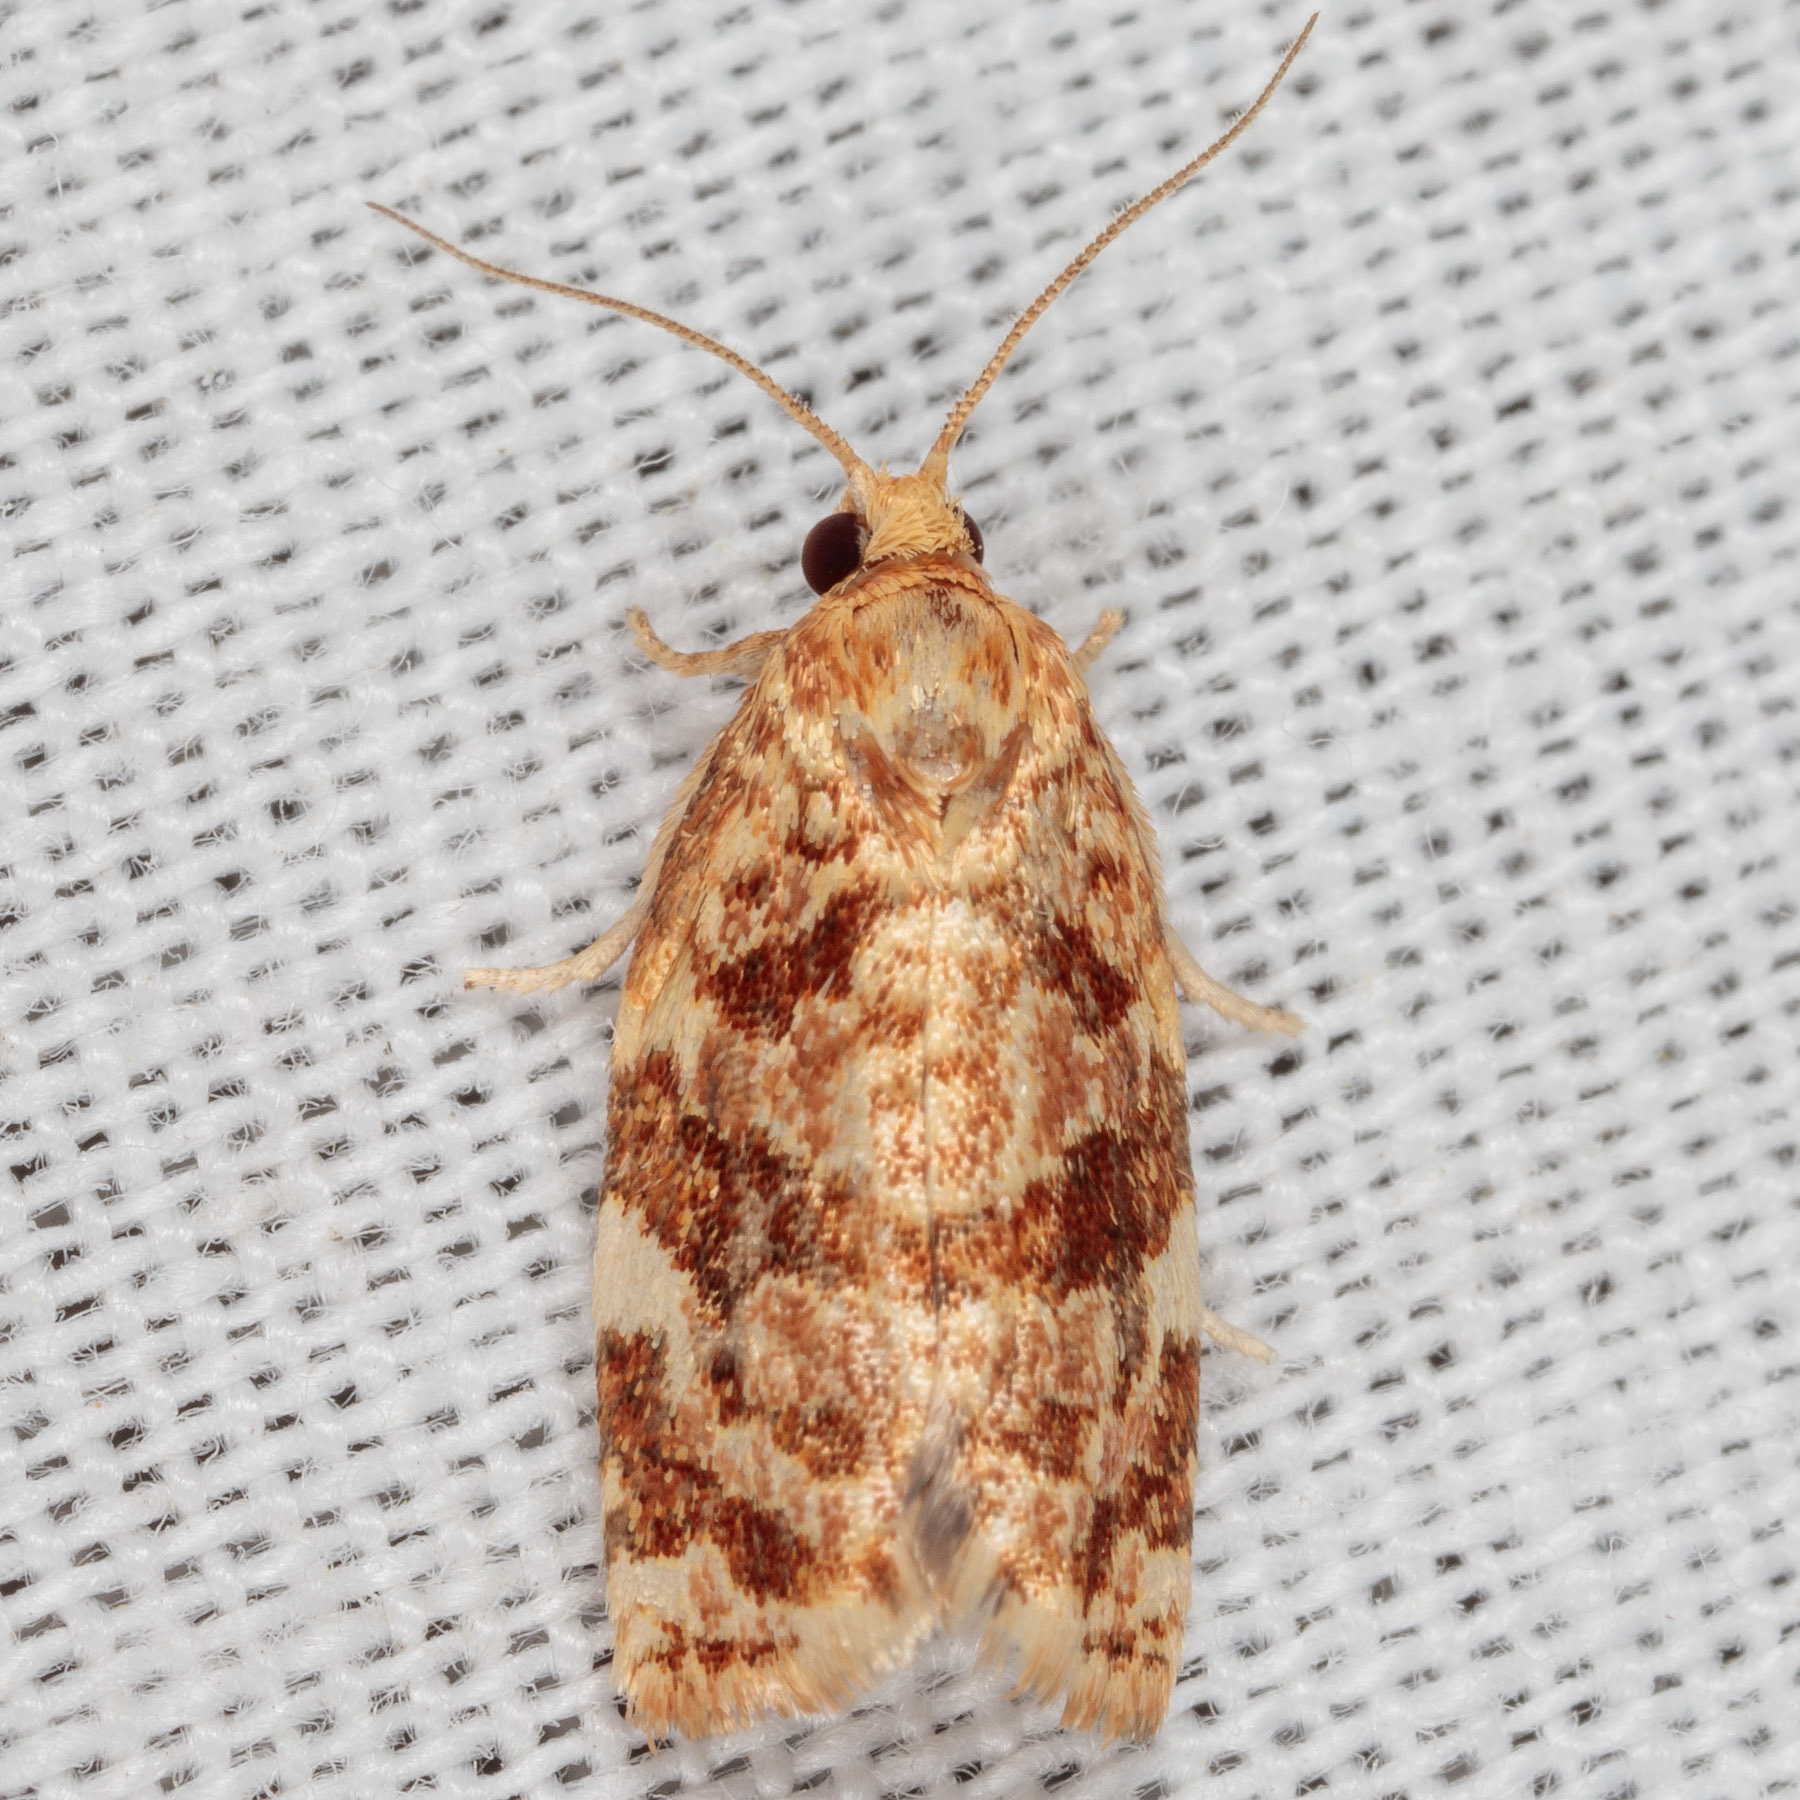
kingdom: Animalia
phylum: Arthropoda
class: Insecta
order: Lepidoptera
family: Tortricidae
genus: Archips
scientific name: Archips argyrospila
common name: Fruit-tree leafroller moth
